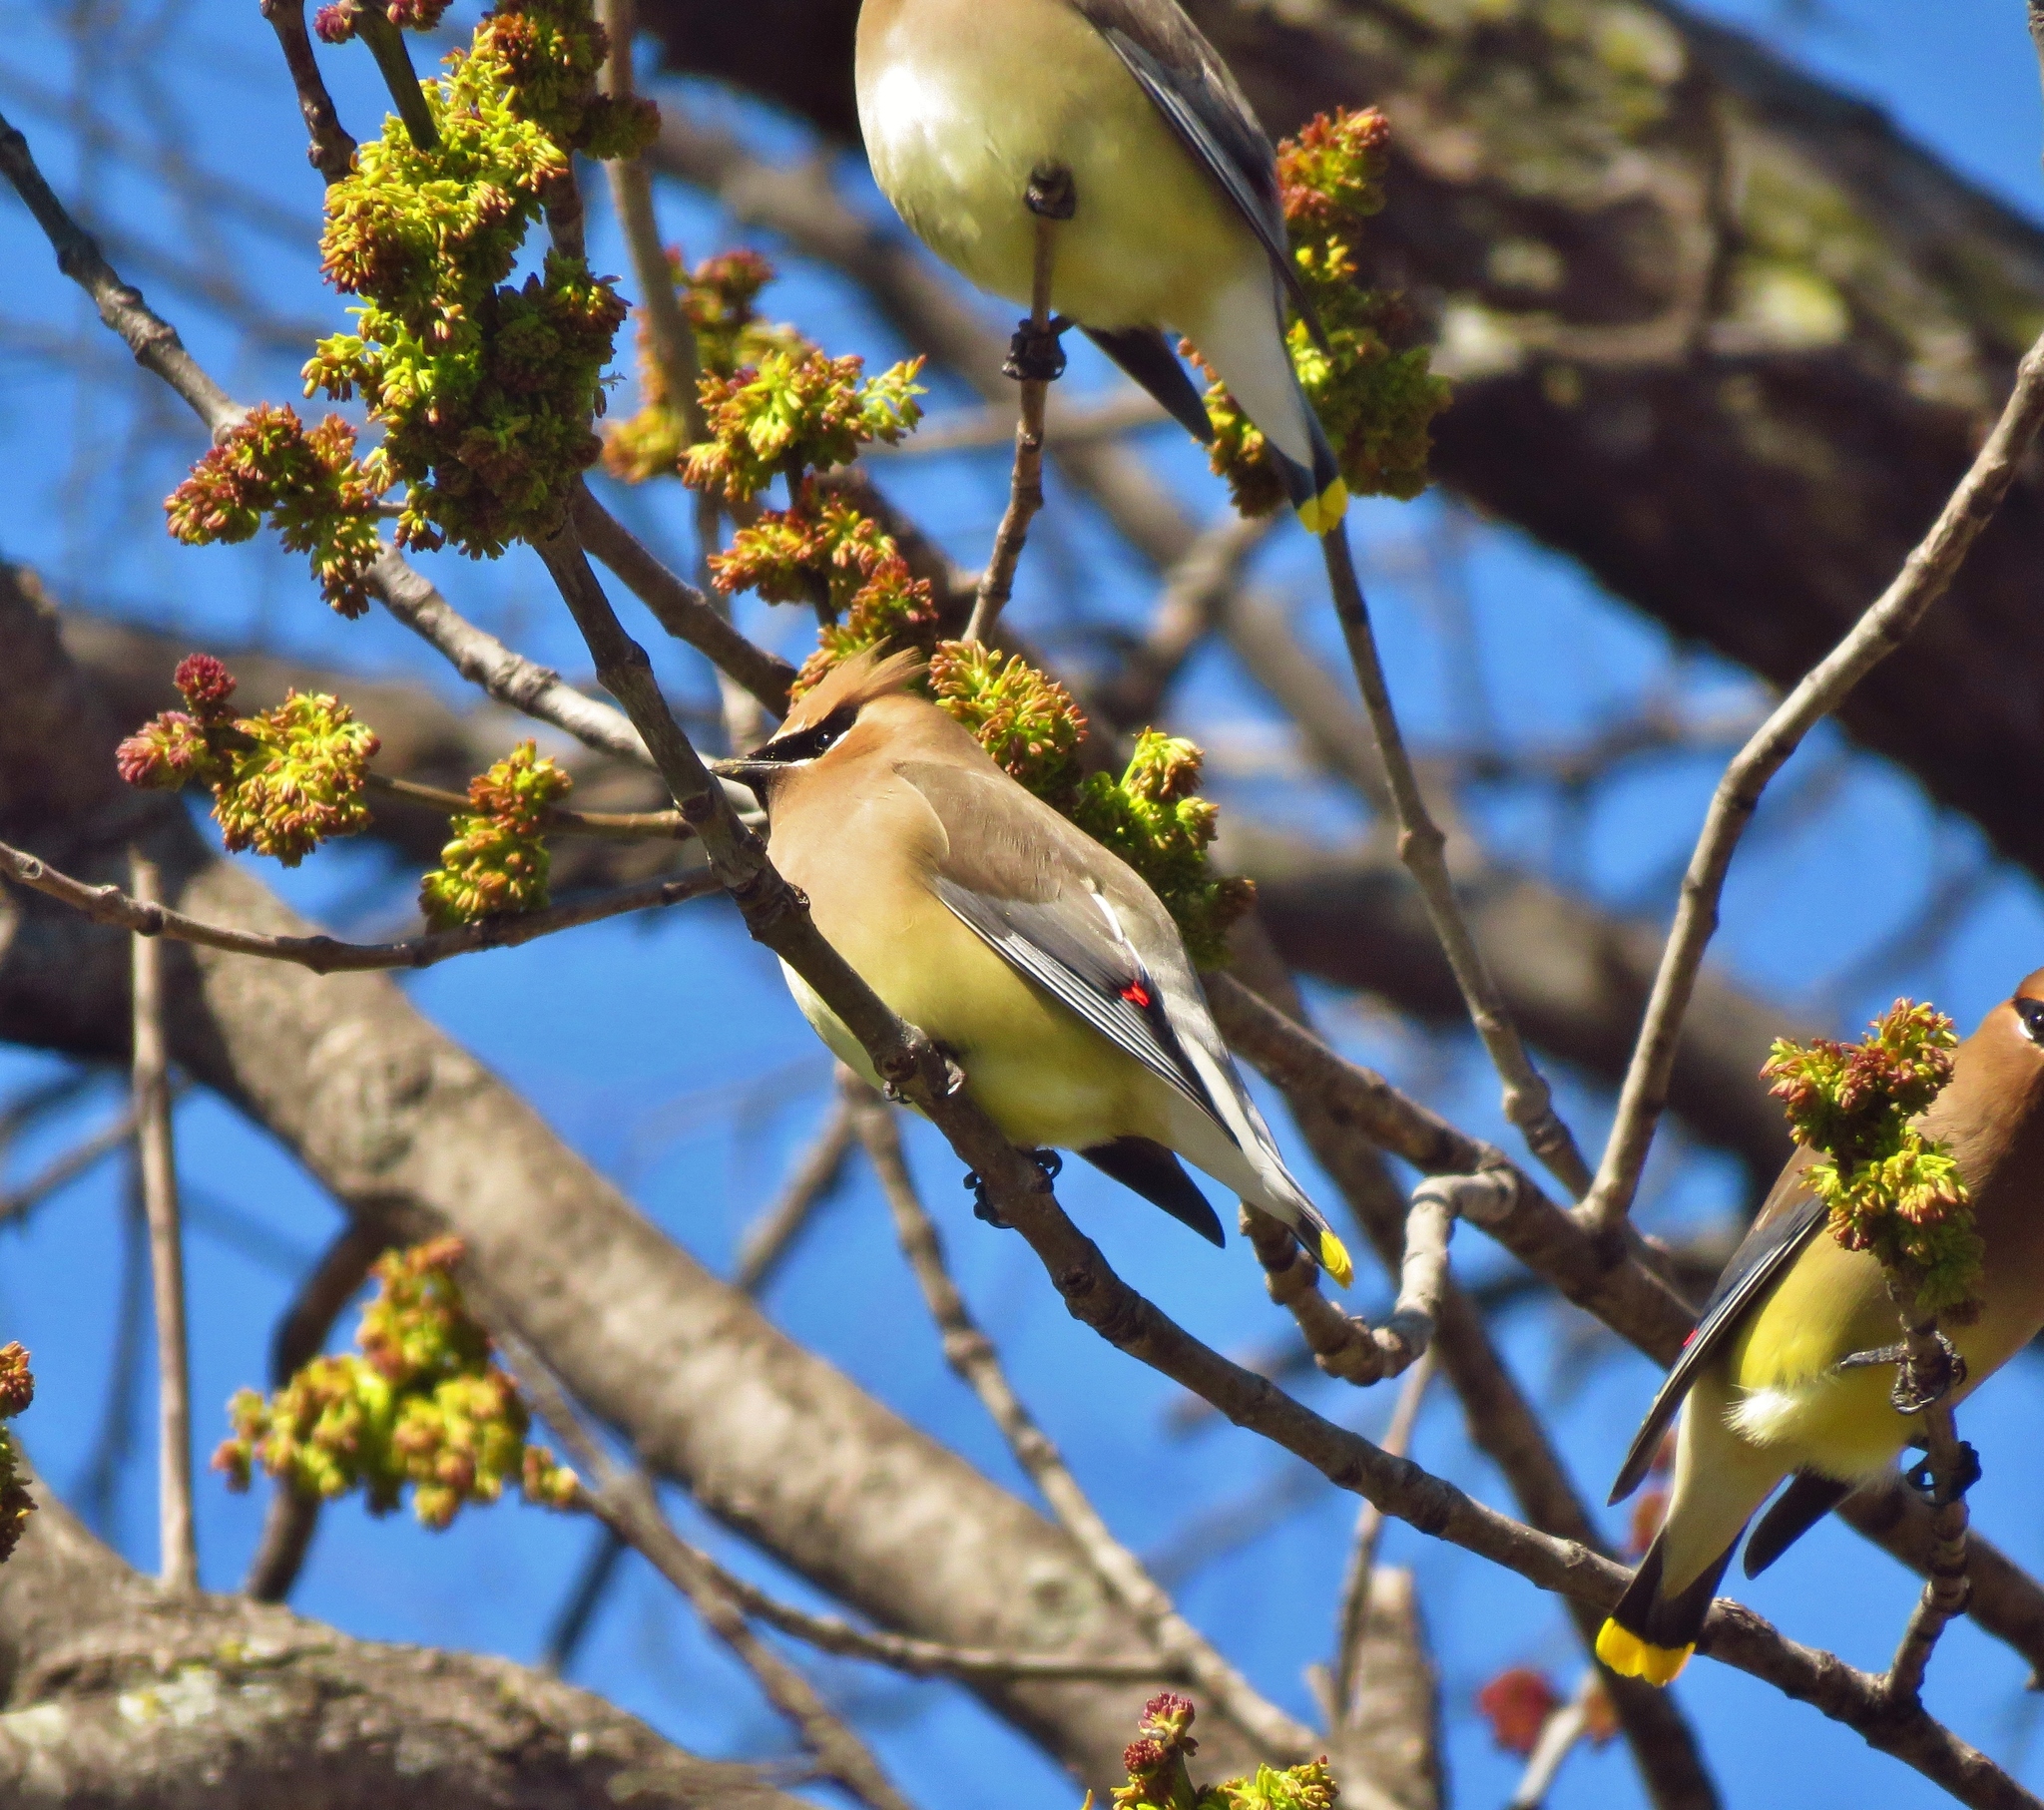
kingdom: Animalia
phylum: Chordata
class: Aves
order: Passeriformes
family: Bombycillidae
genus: Bombycilla
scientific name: Bombycilla cedrorum
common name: Cedar waxwing
